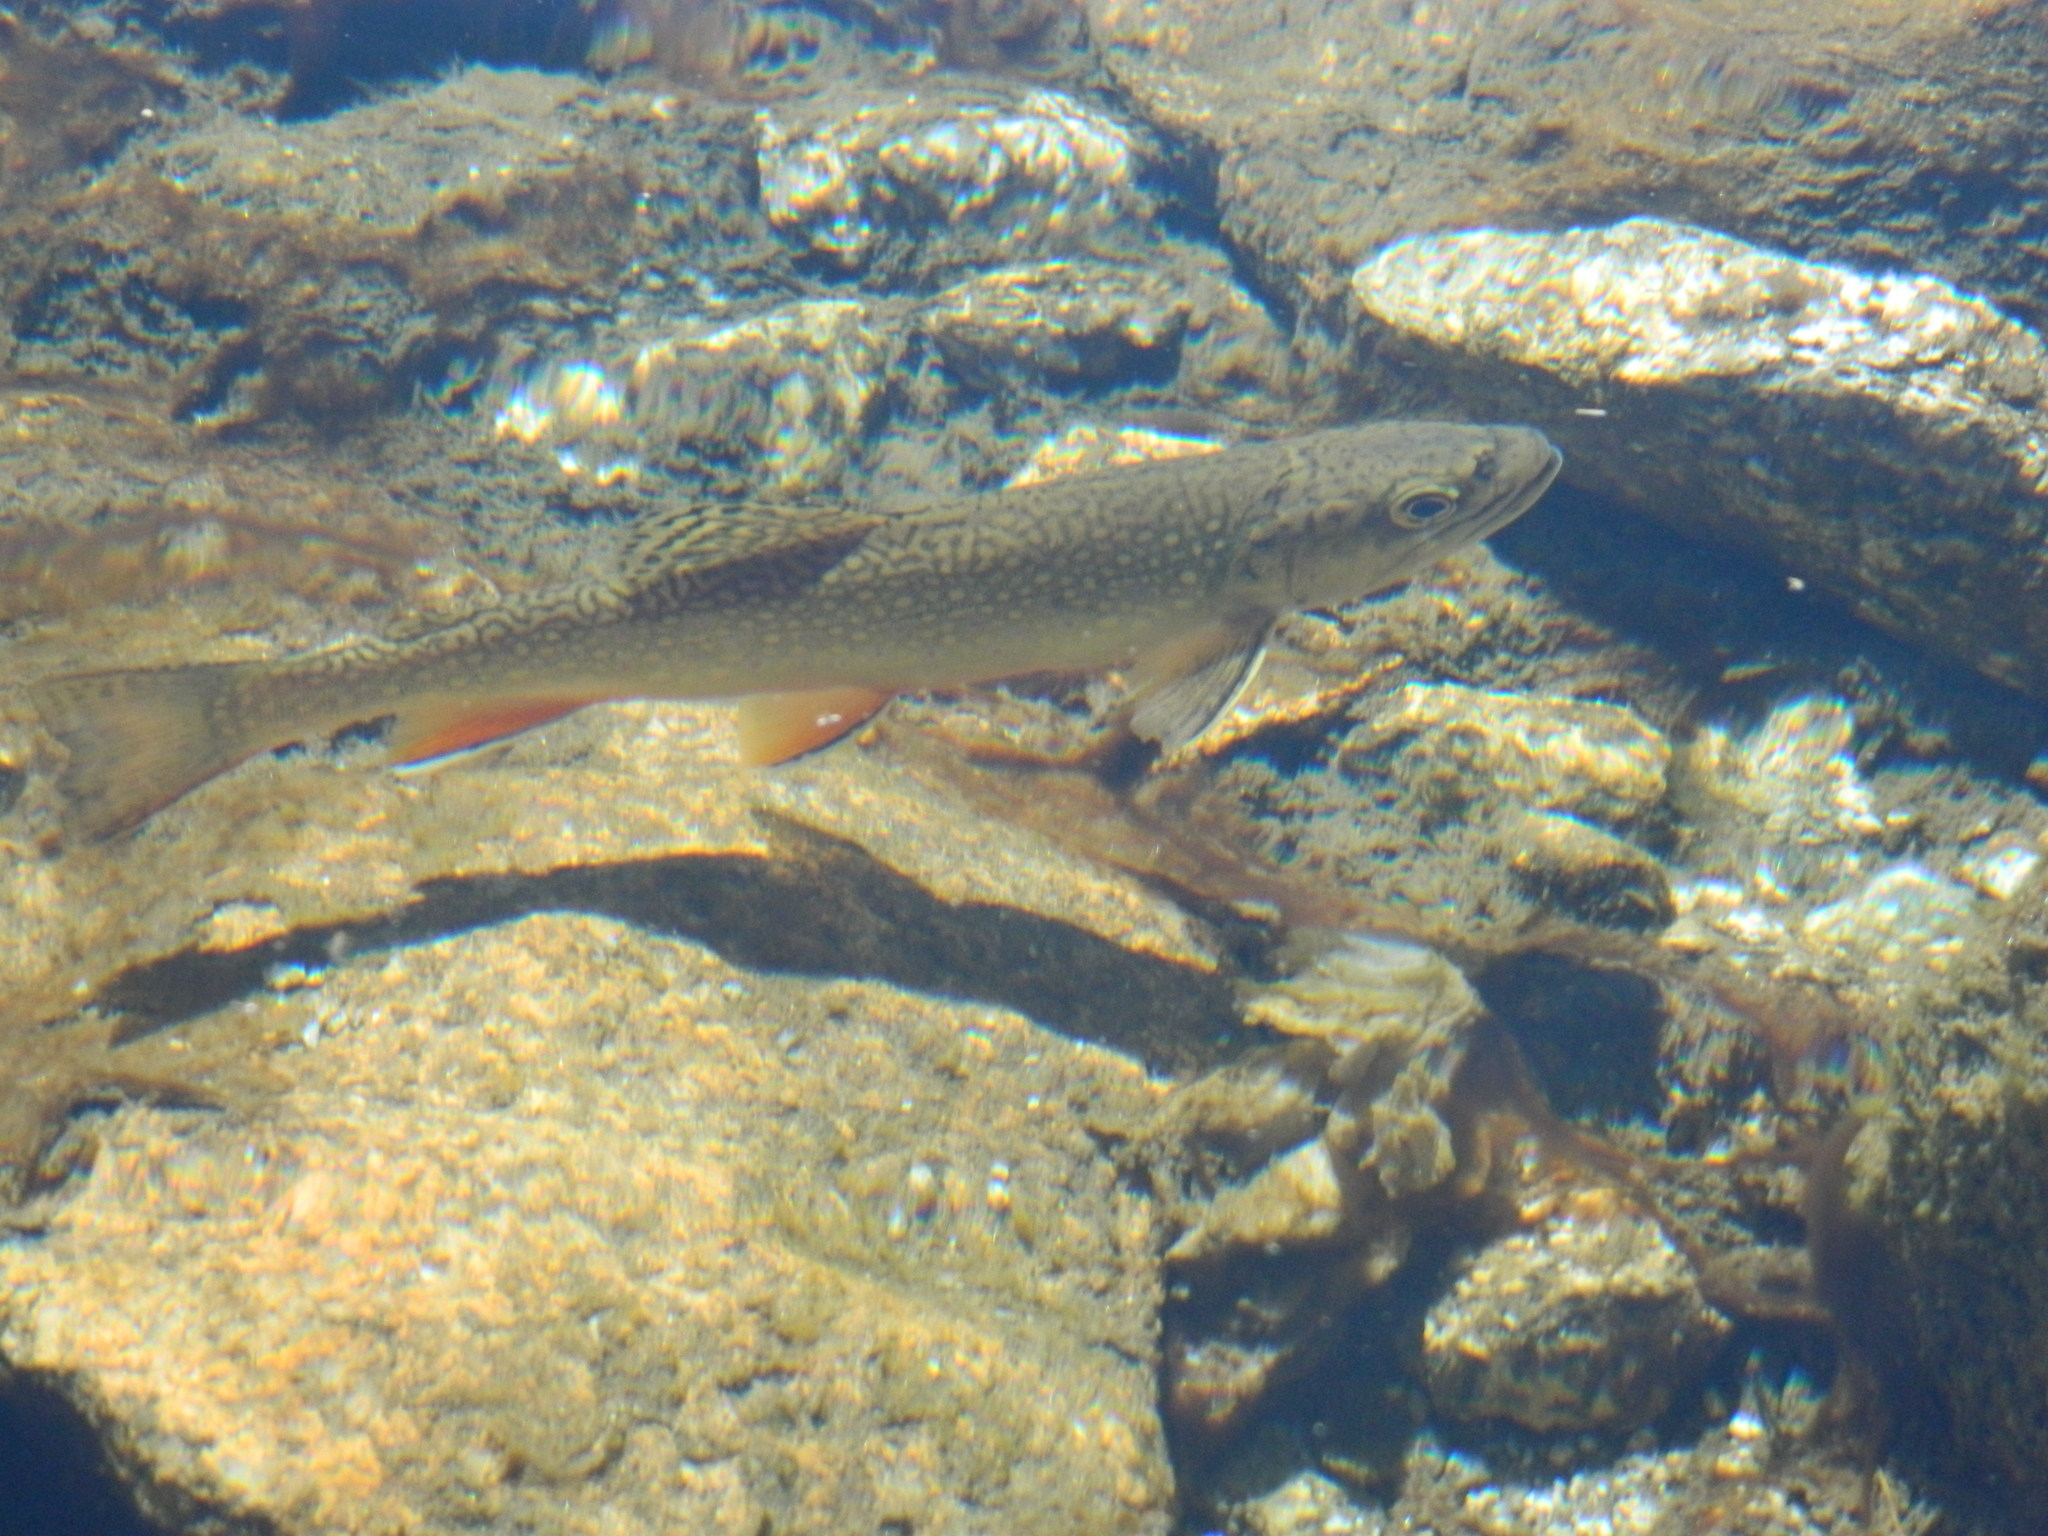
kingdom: Animalia
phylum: Chordata
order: Salmoniformes
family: Salmonidae
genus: Salvelinus
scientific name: Salvelinus fontinalis
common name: Brook trout
